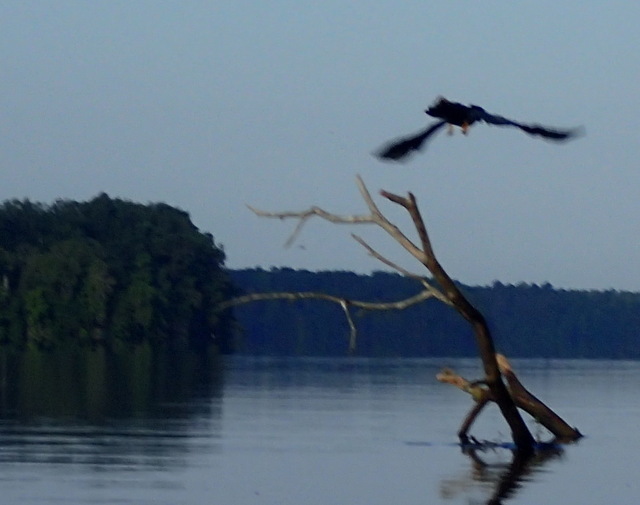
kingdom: Animalia
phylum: Chordata
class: Aves
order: Suliformes
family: Anhingidae
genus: Anhinga
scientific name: Anhinga anhinga
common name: Anhinga
